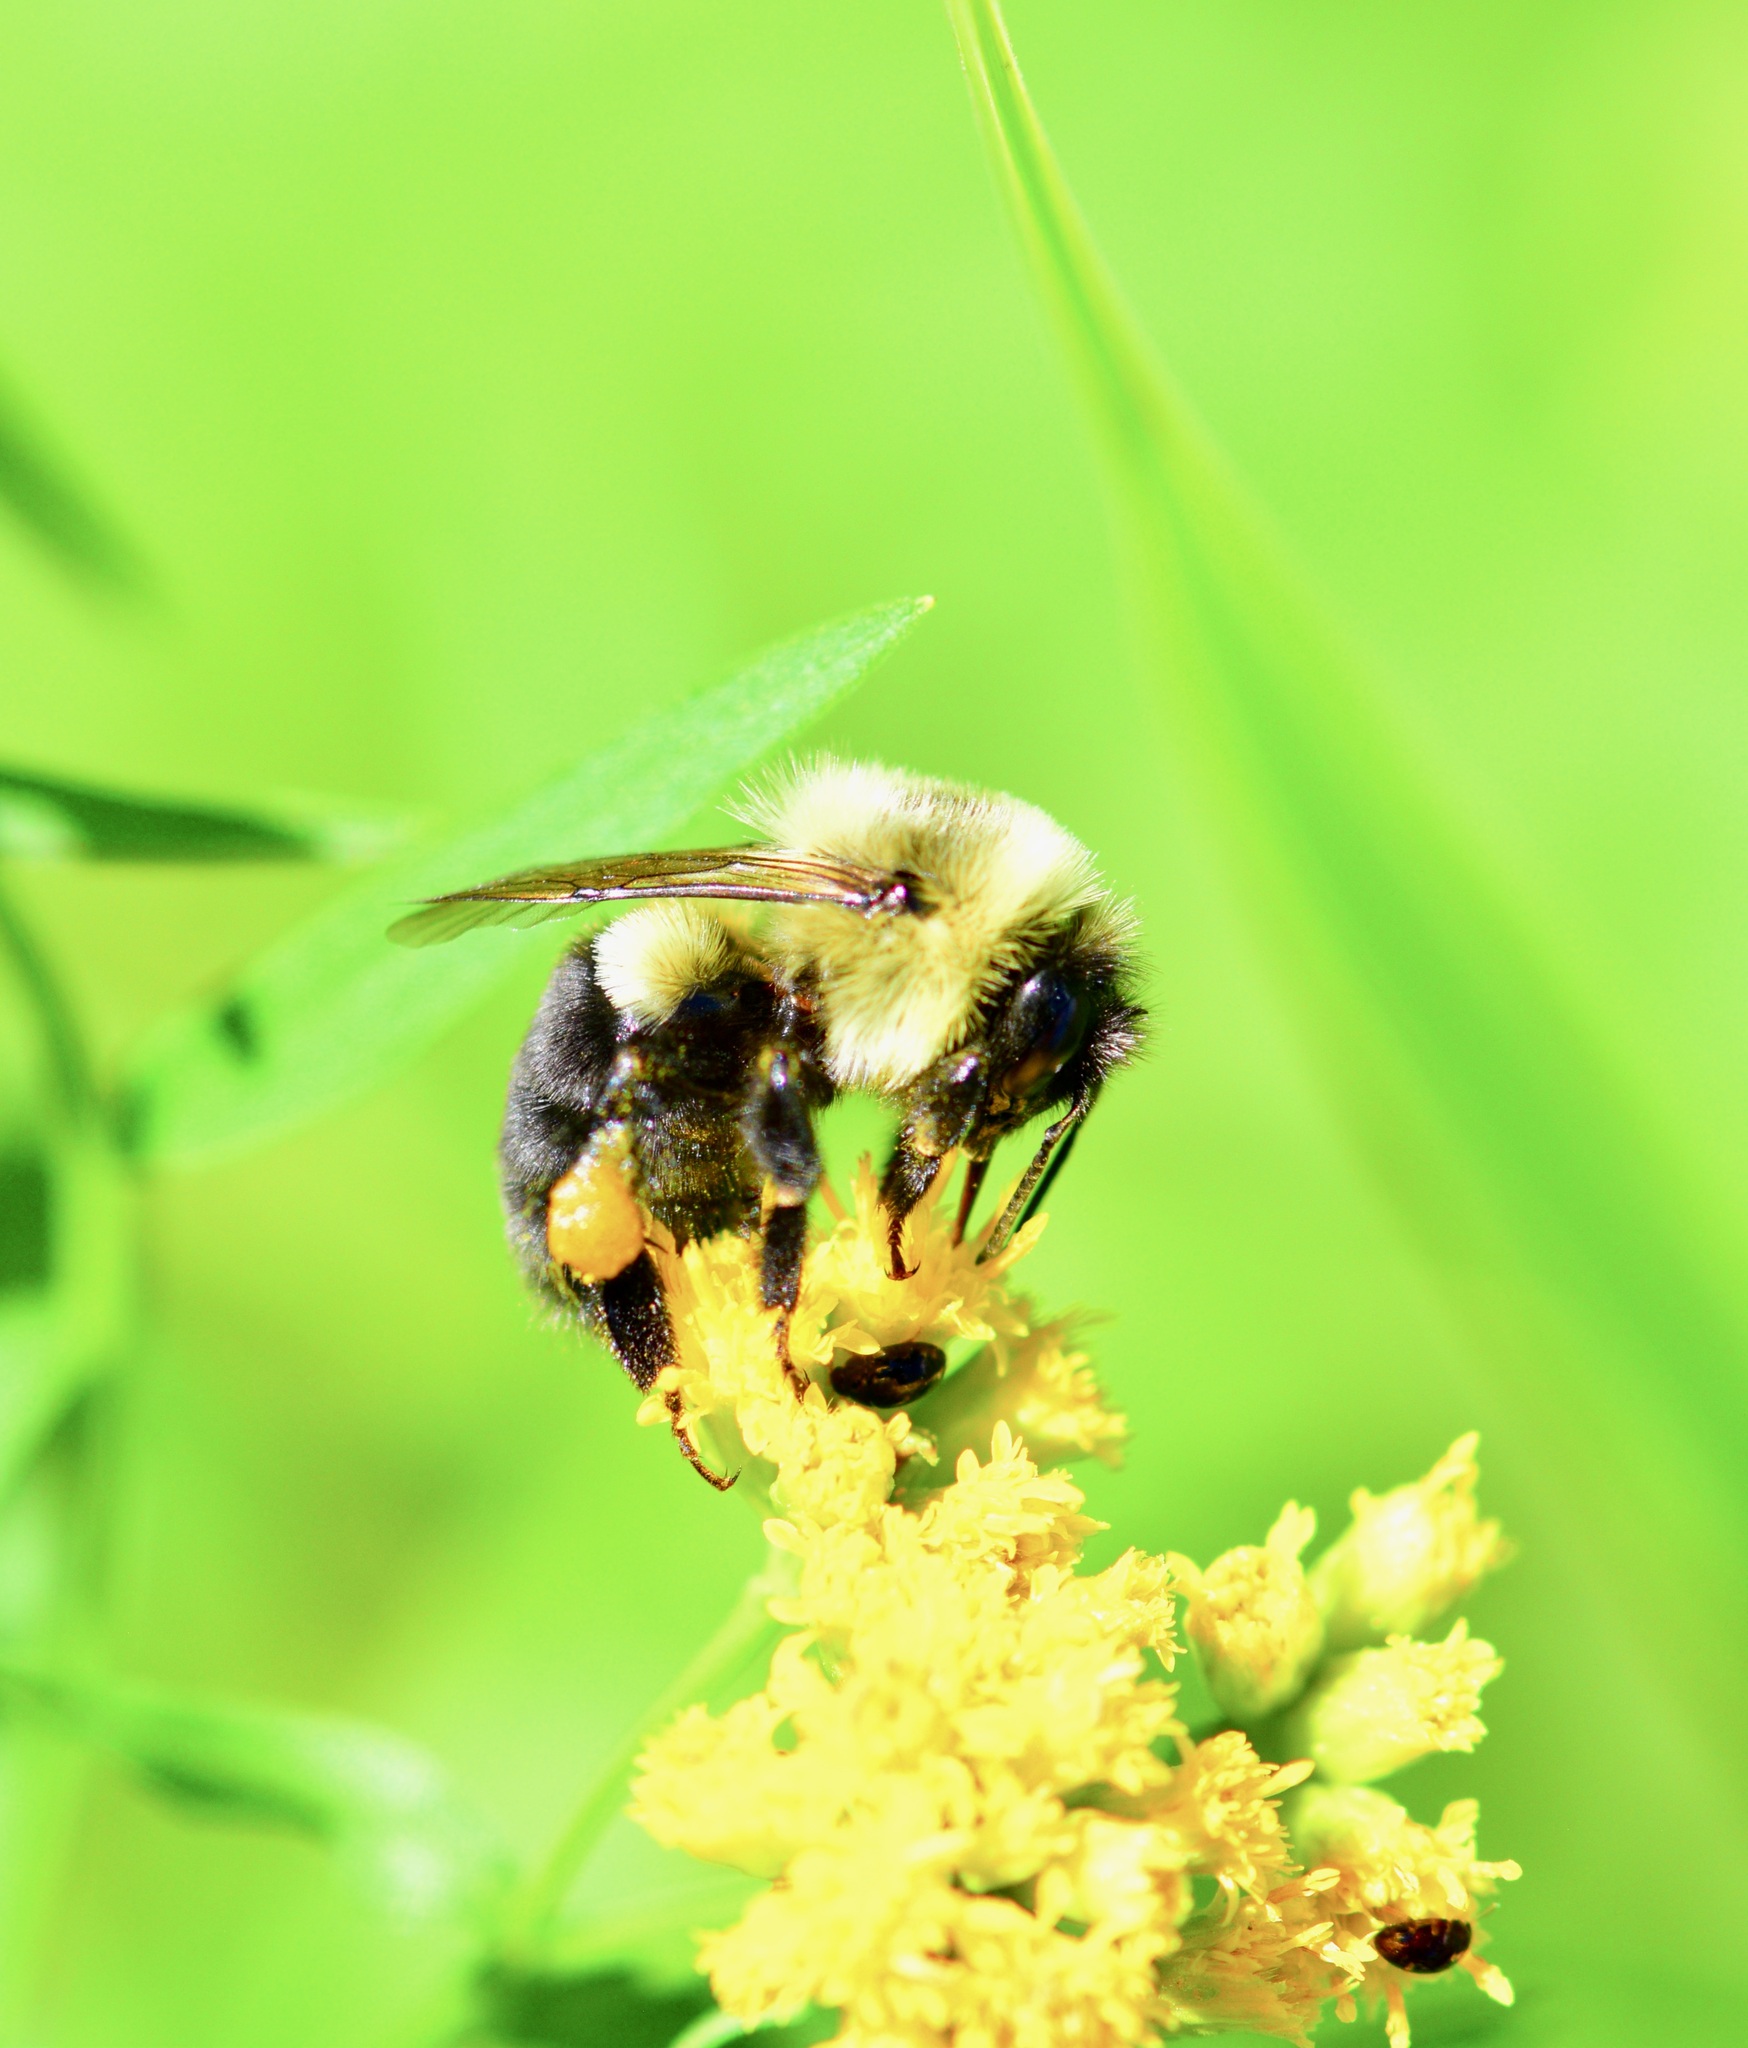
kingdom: Animalia
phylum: Arthropoda
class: Insecta
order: Hymenoptera
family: Apidae
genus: Bombus
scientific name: Bombus impatiens
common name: Common eastern bumble bee
